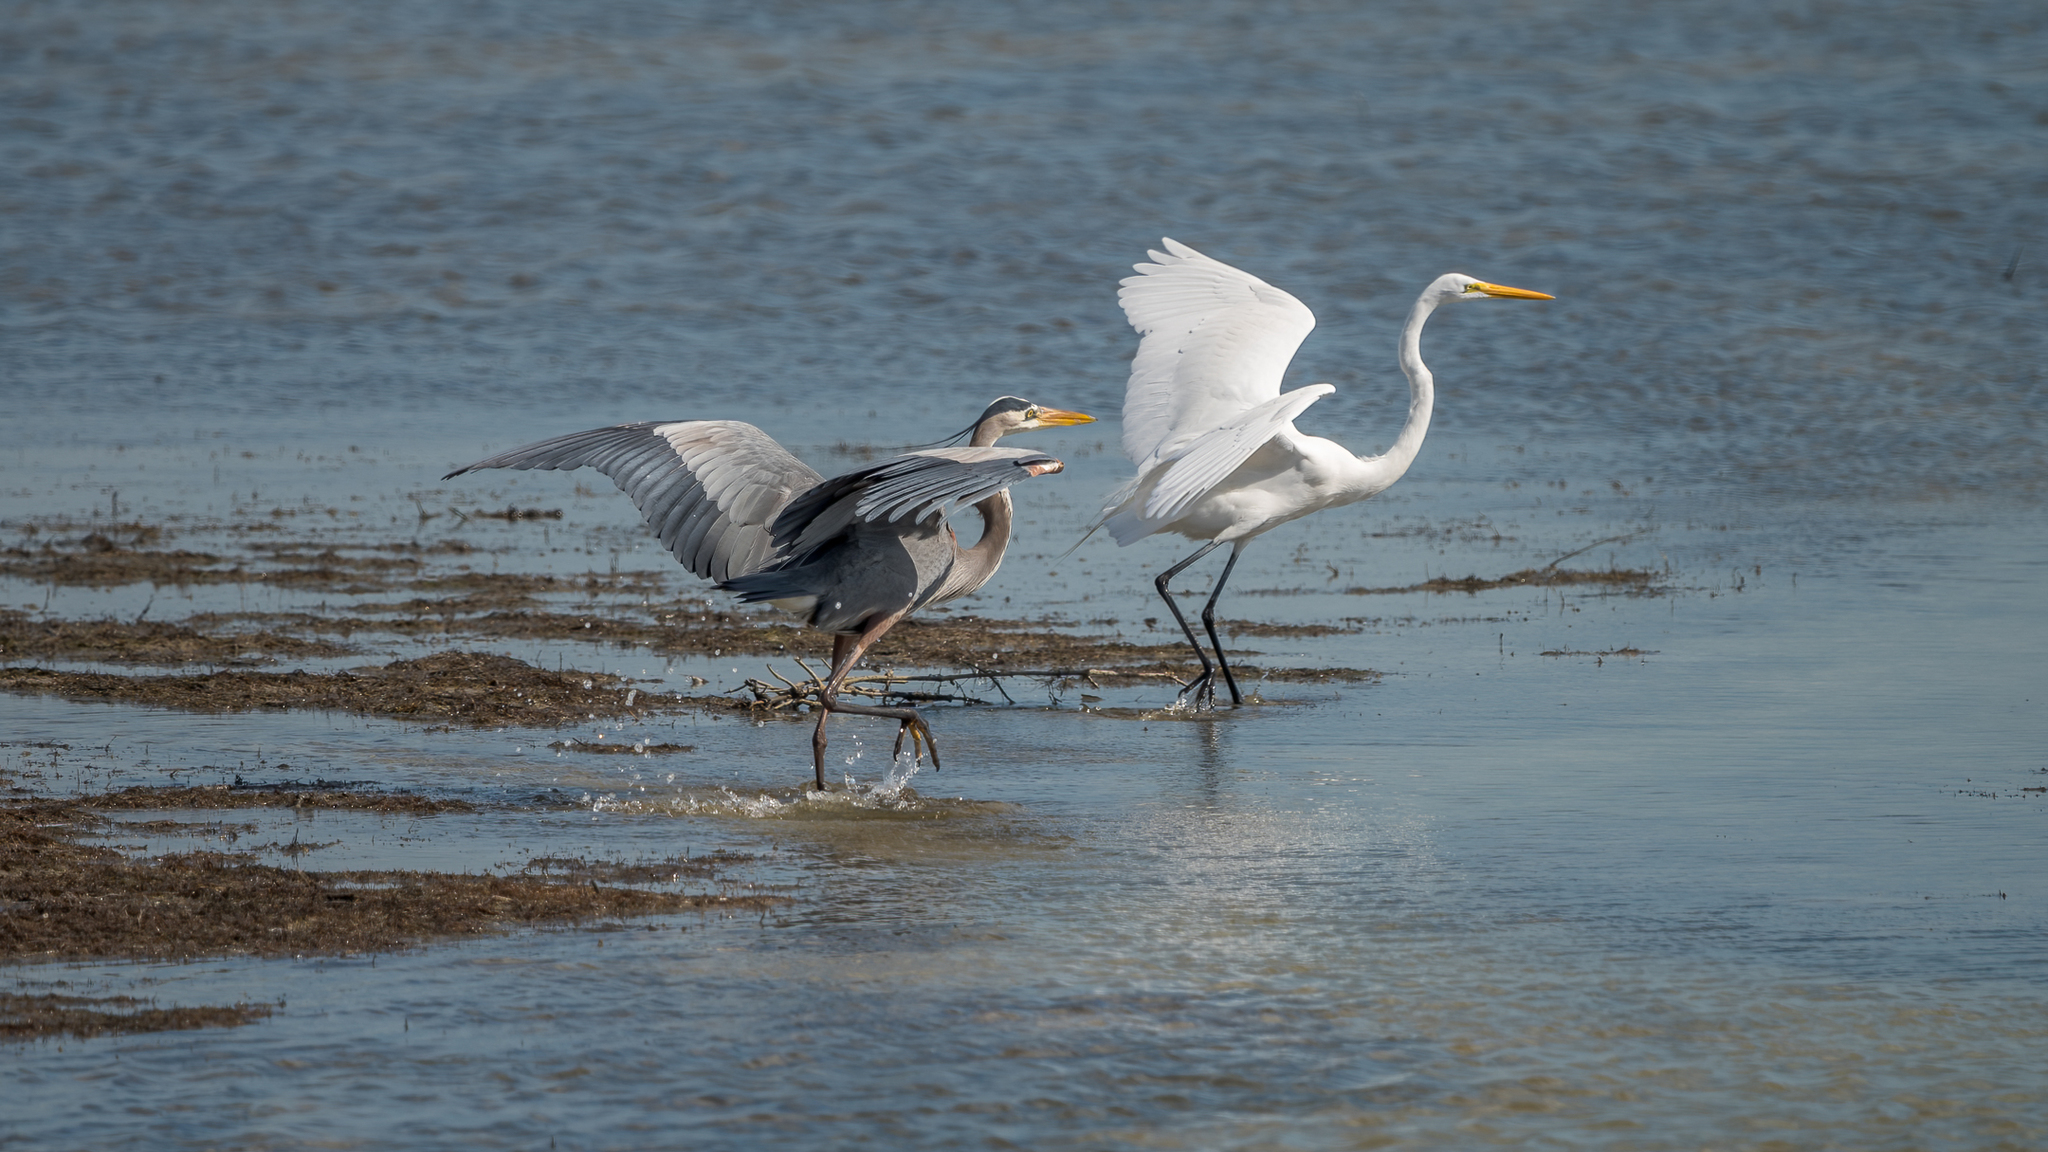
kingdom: Animalia
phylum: Chordata
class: Aves
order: Pelecaniformes
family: Ardeidae
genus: Ardea
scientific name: Ardea alba
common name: Great egret
